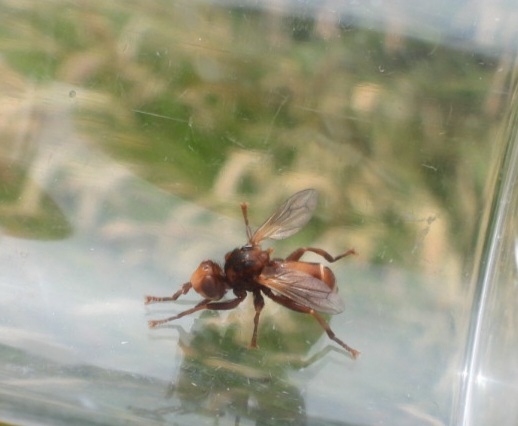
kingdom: Animalia
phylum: Arthropoda
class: Insecta
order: Diptera
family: Conopidae
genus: Sicus
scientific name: Sicus ferrugineus
